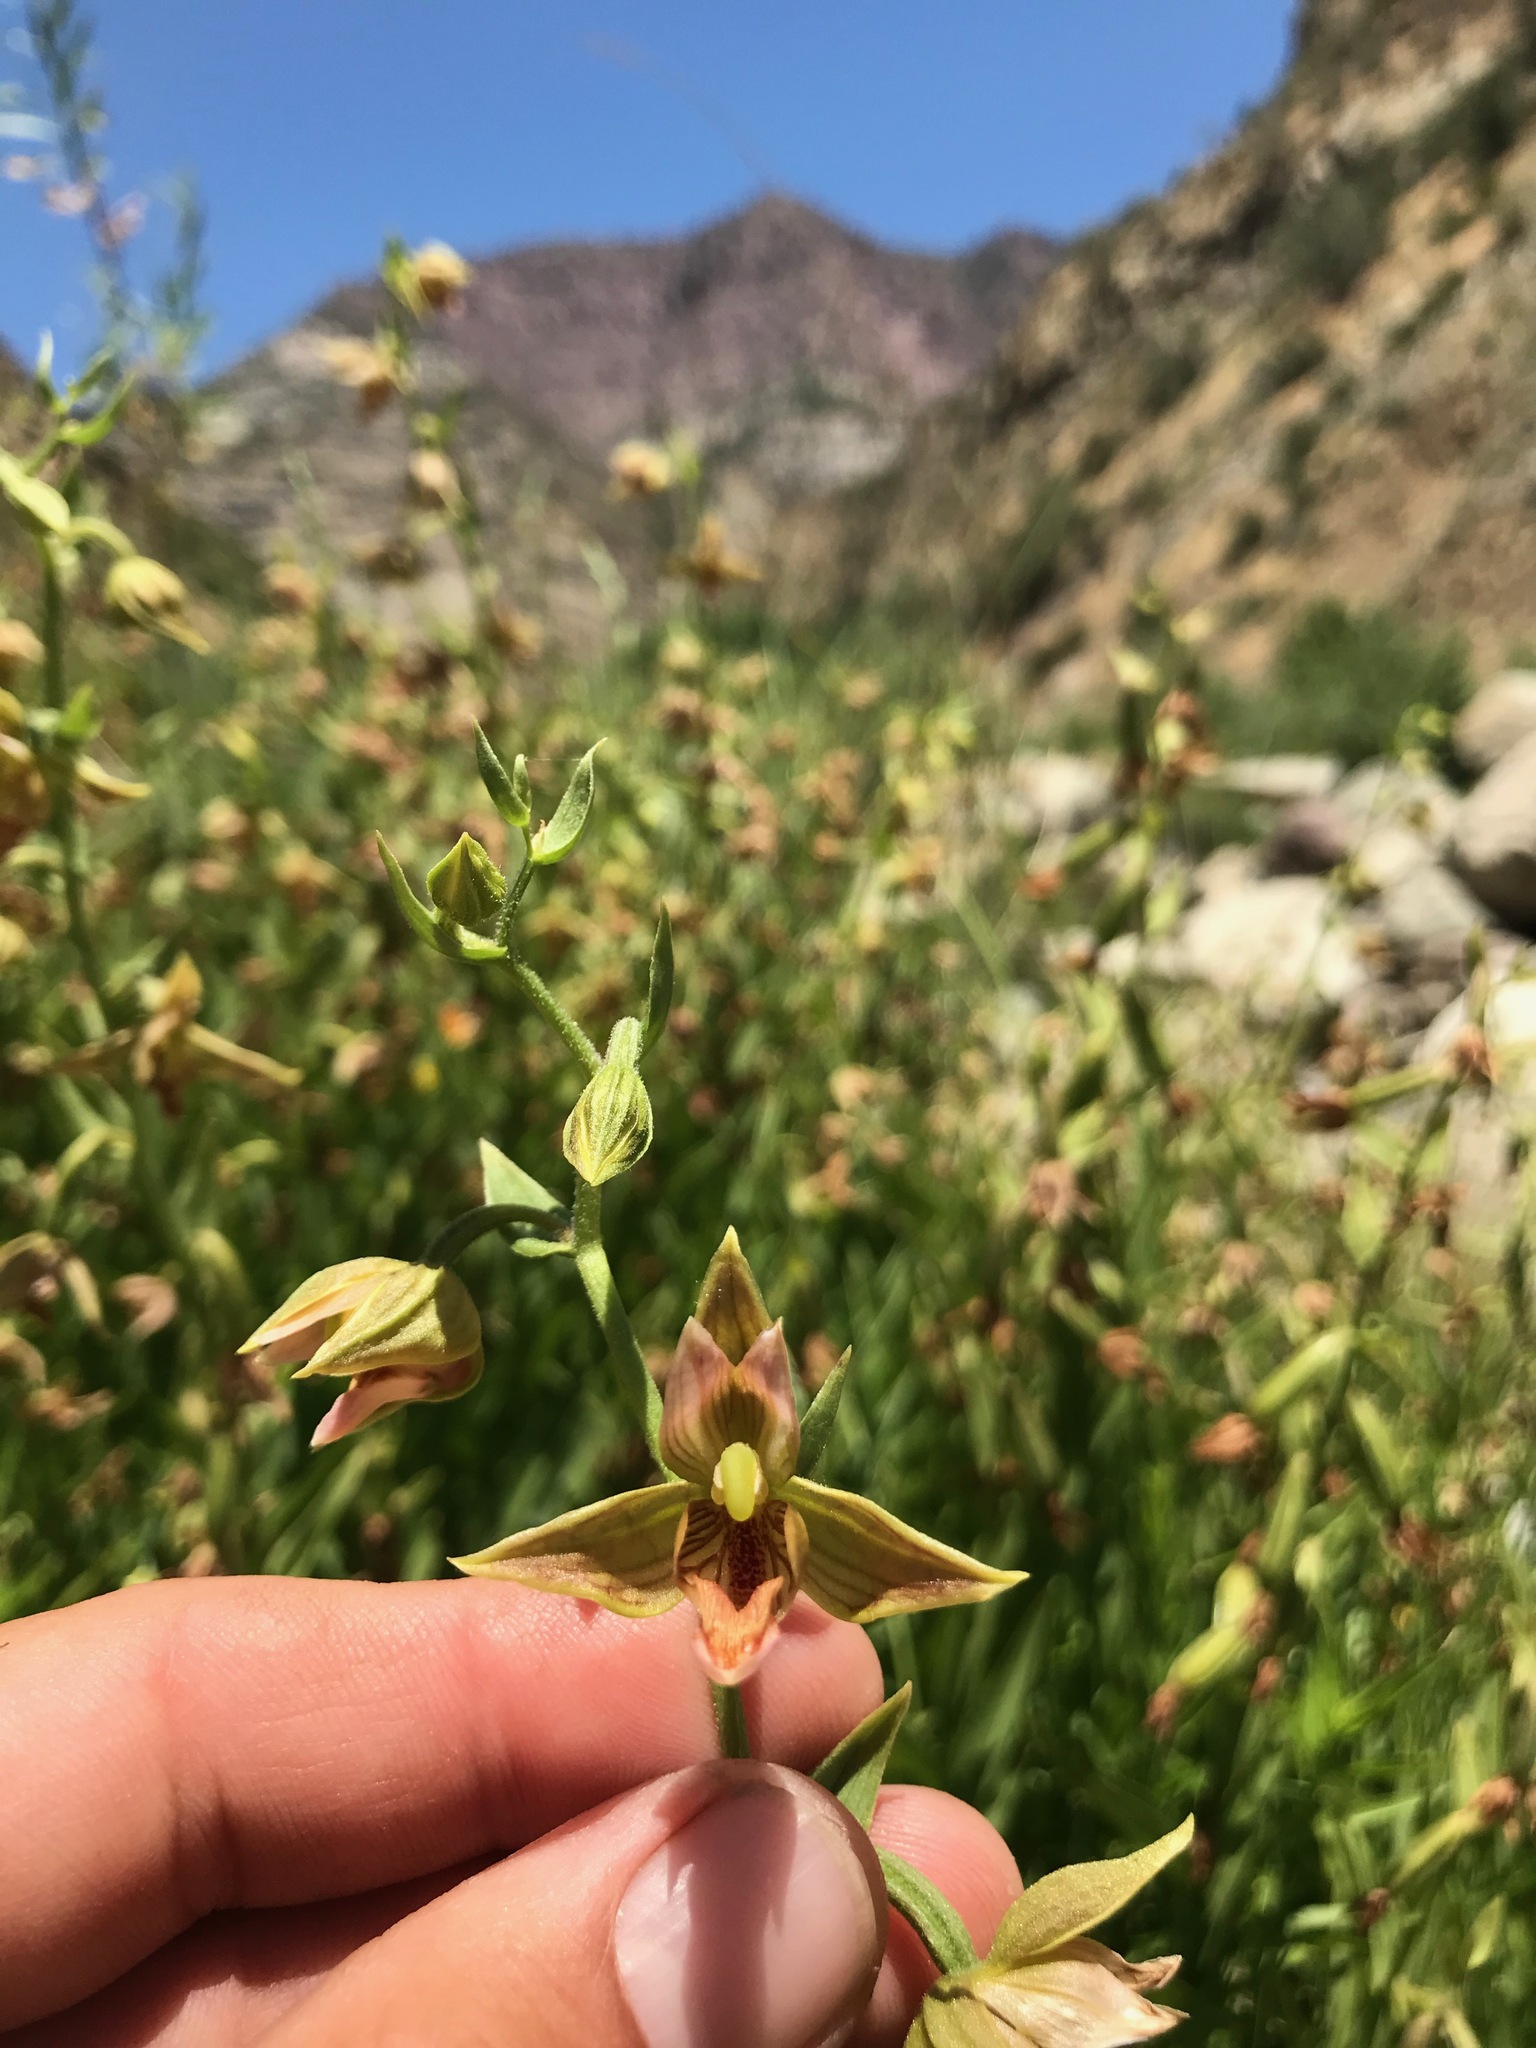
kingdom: Plantae
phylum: Tracheophyta
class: Liliopsida
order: Asparagales
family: Orchidaceae
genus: Epipactis
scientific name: Epipactis gigantea
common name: Chatterbox
